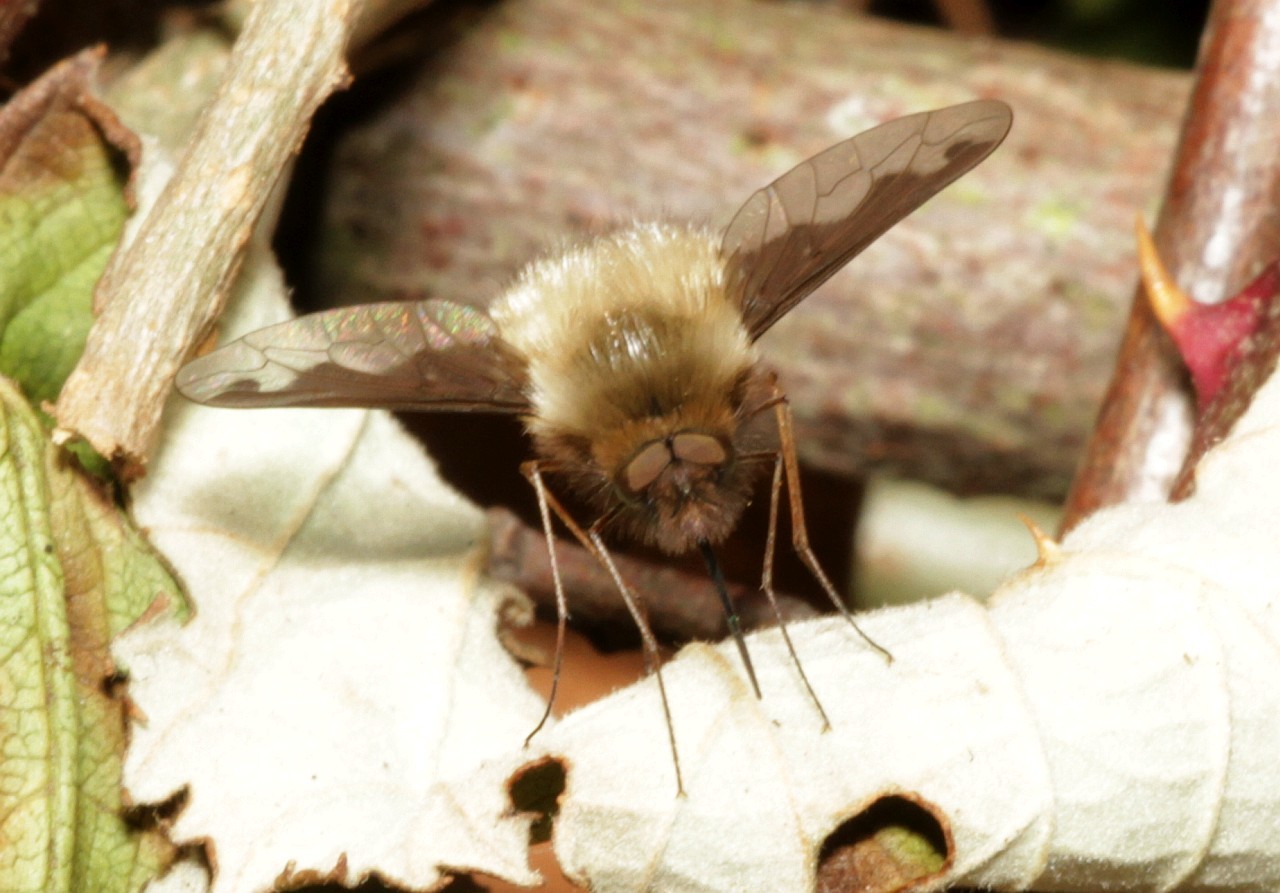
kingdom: Animalia
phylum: Arthropoda
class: Insecta
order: Diptera
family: Bombyliidae
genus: Bombylius
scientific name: Bombylius major
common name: Bee fly
